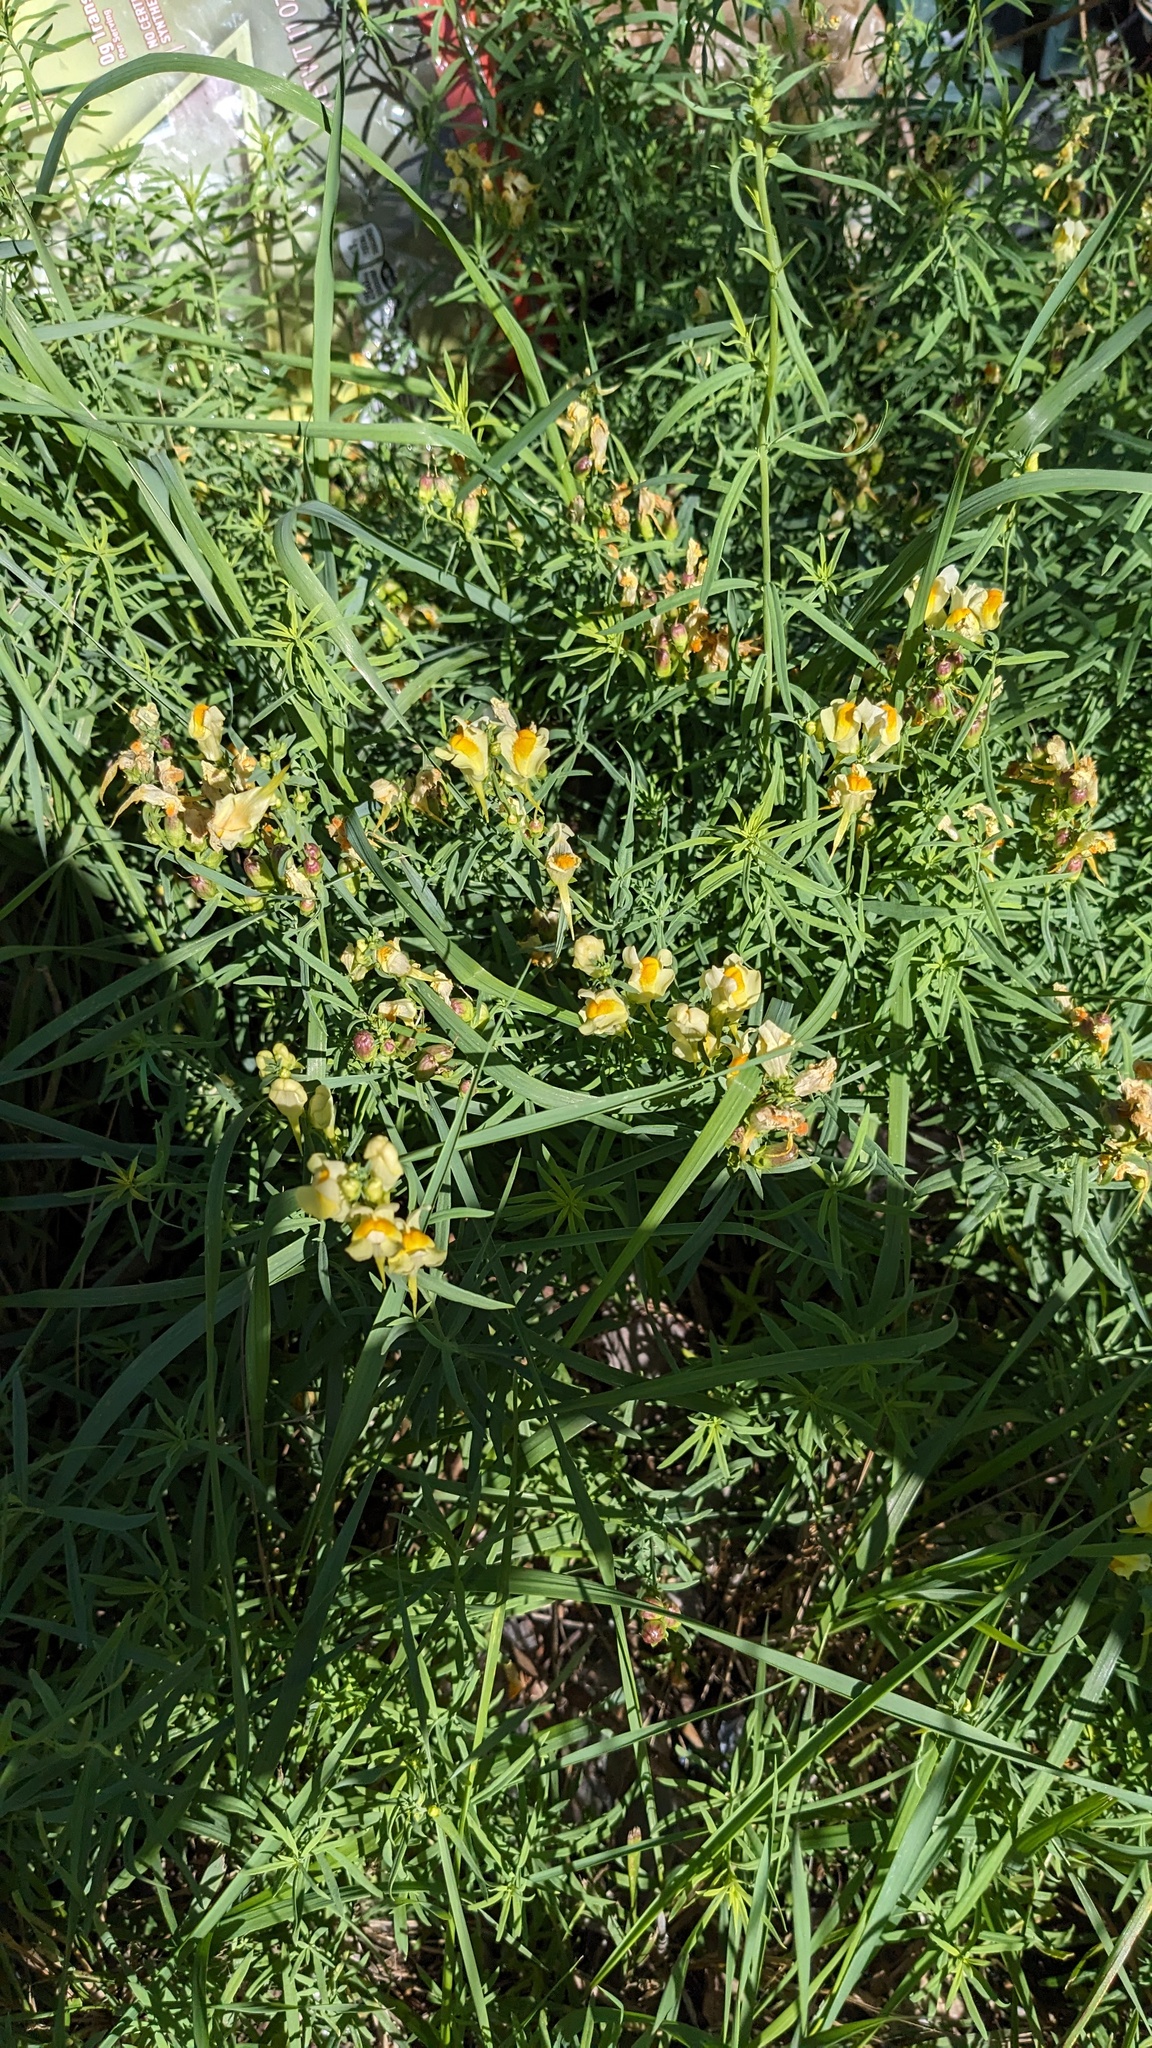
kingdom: Plantae
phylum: Tracheophyta
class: Magnoliopsida
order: Lamiales
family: Plantaginaceae
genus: Linaria
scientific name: Linaria vulgaris
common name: Butter and eggs
